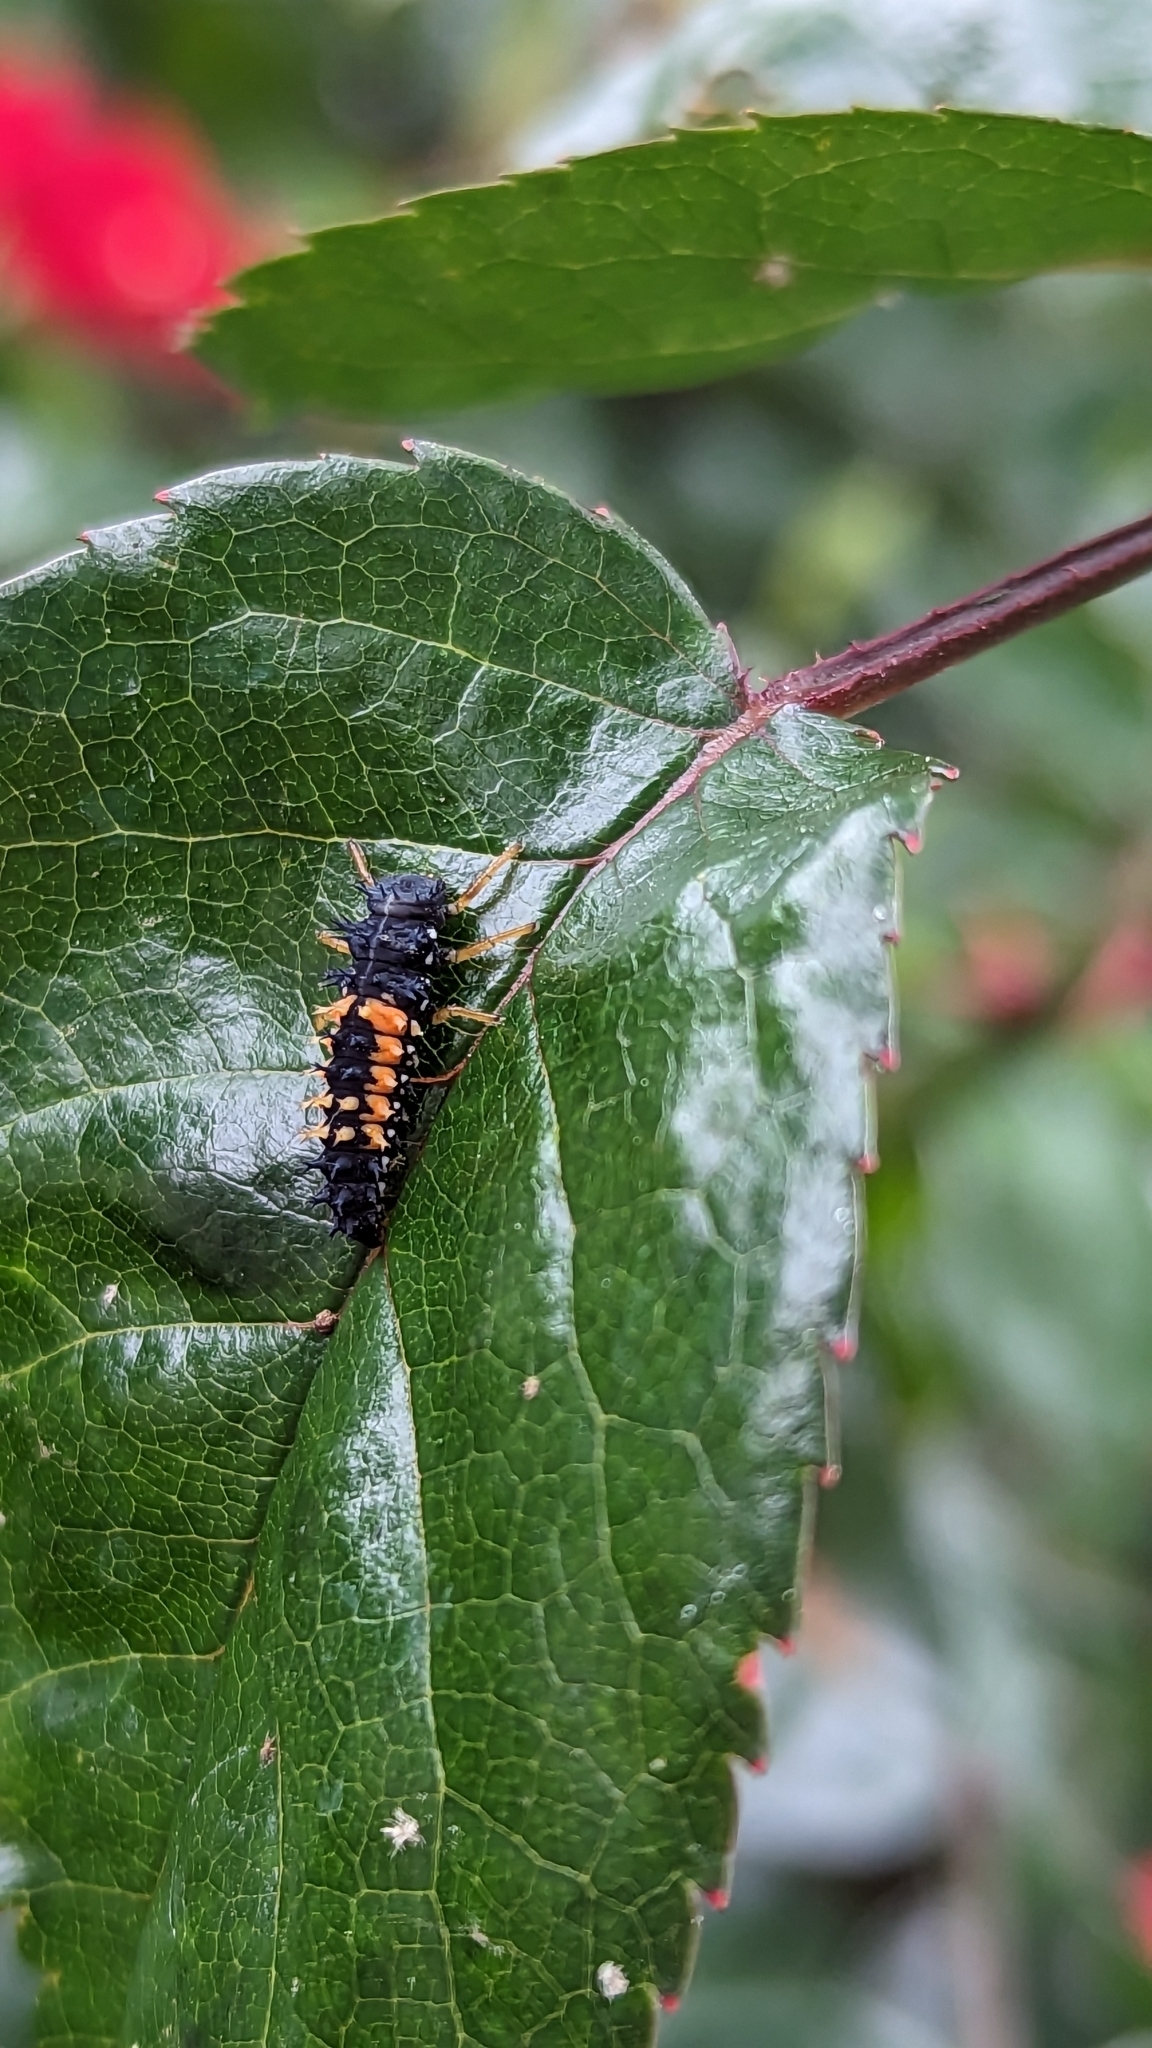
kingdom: Animalia
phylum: Arthropoda
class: Insecta
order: Coleoptera
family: Coccinellidae
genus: Harmonia
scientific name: Harmonia axyridis
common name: Harlequin ladybird
